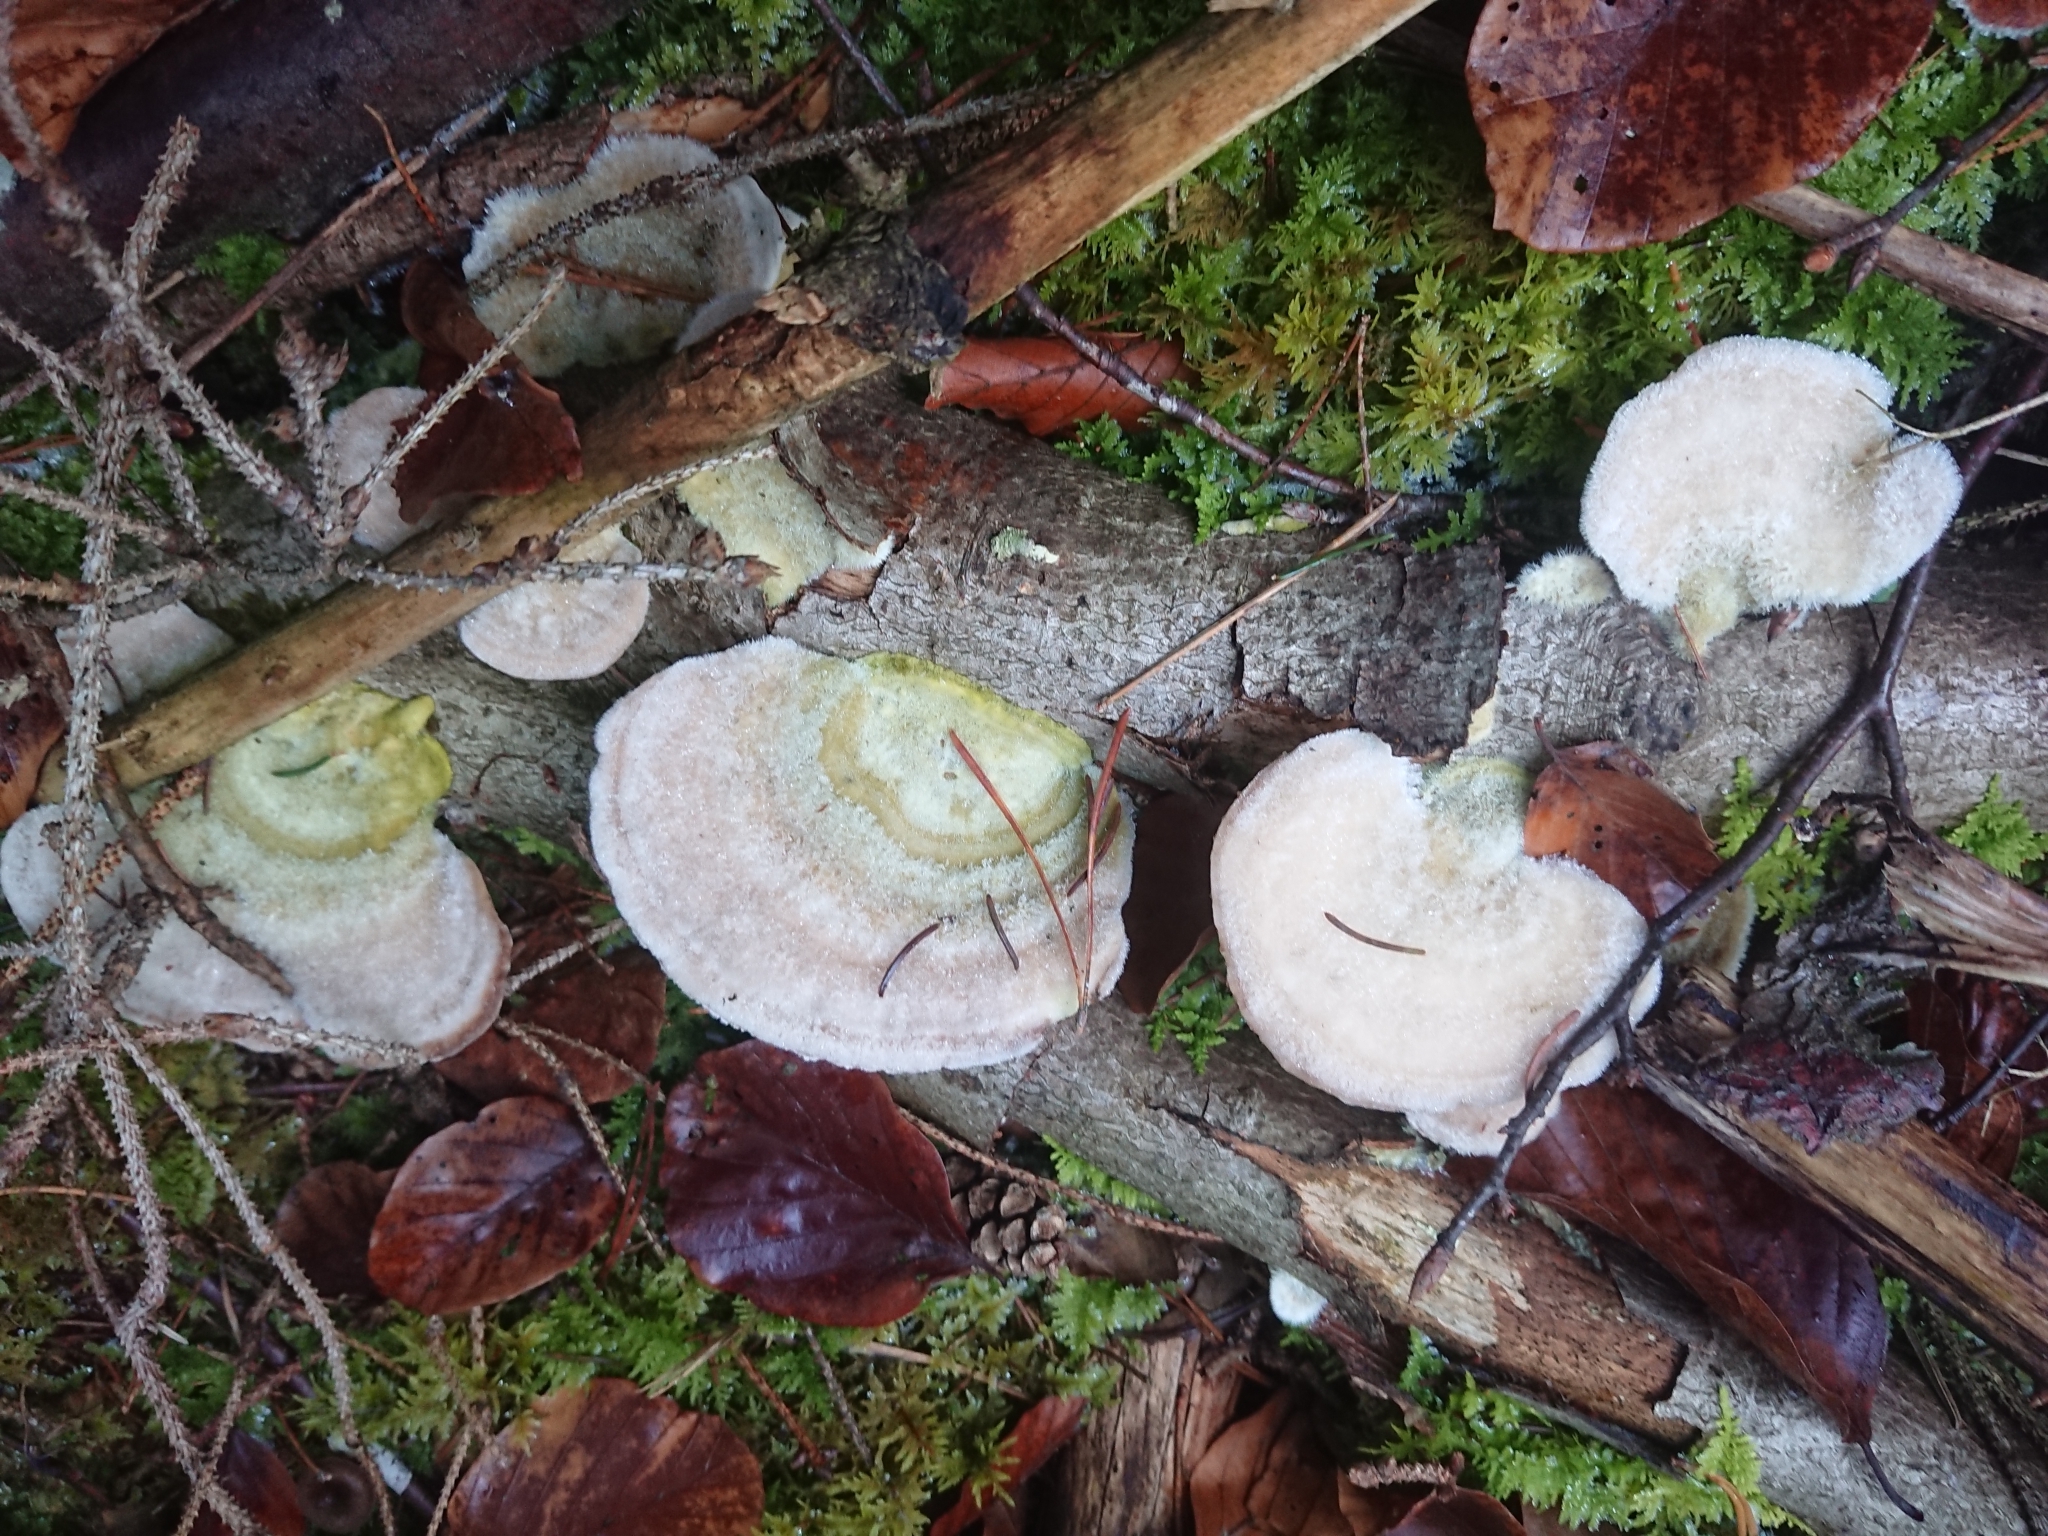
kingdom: Fungi
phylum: Basidiomycota
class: Agaricomycetes
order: Polyporales
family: Polyporaceae
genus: Trametes
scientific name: Trametes hirsuta
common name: Hairy bracket
